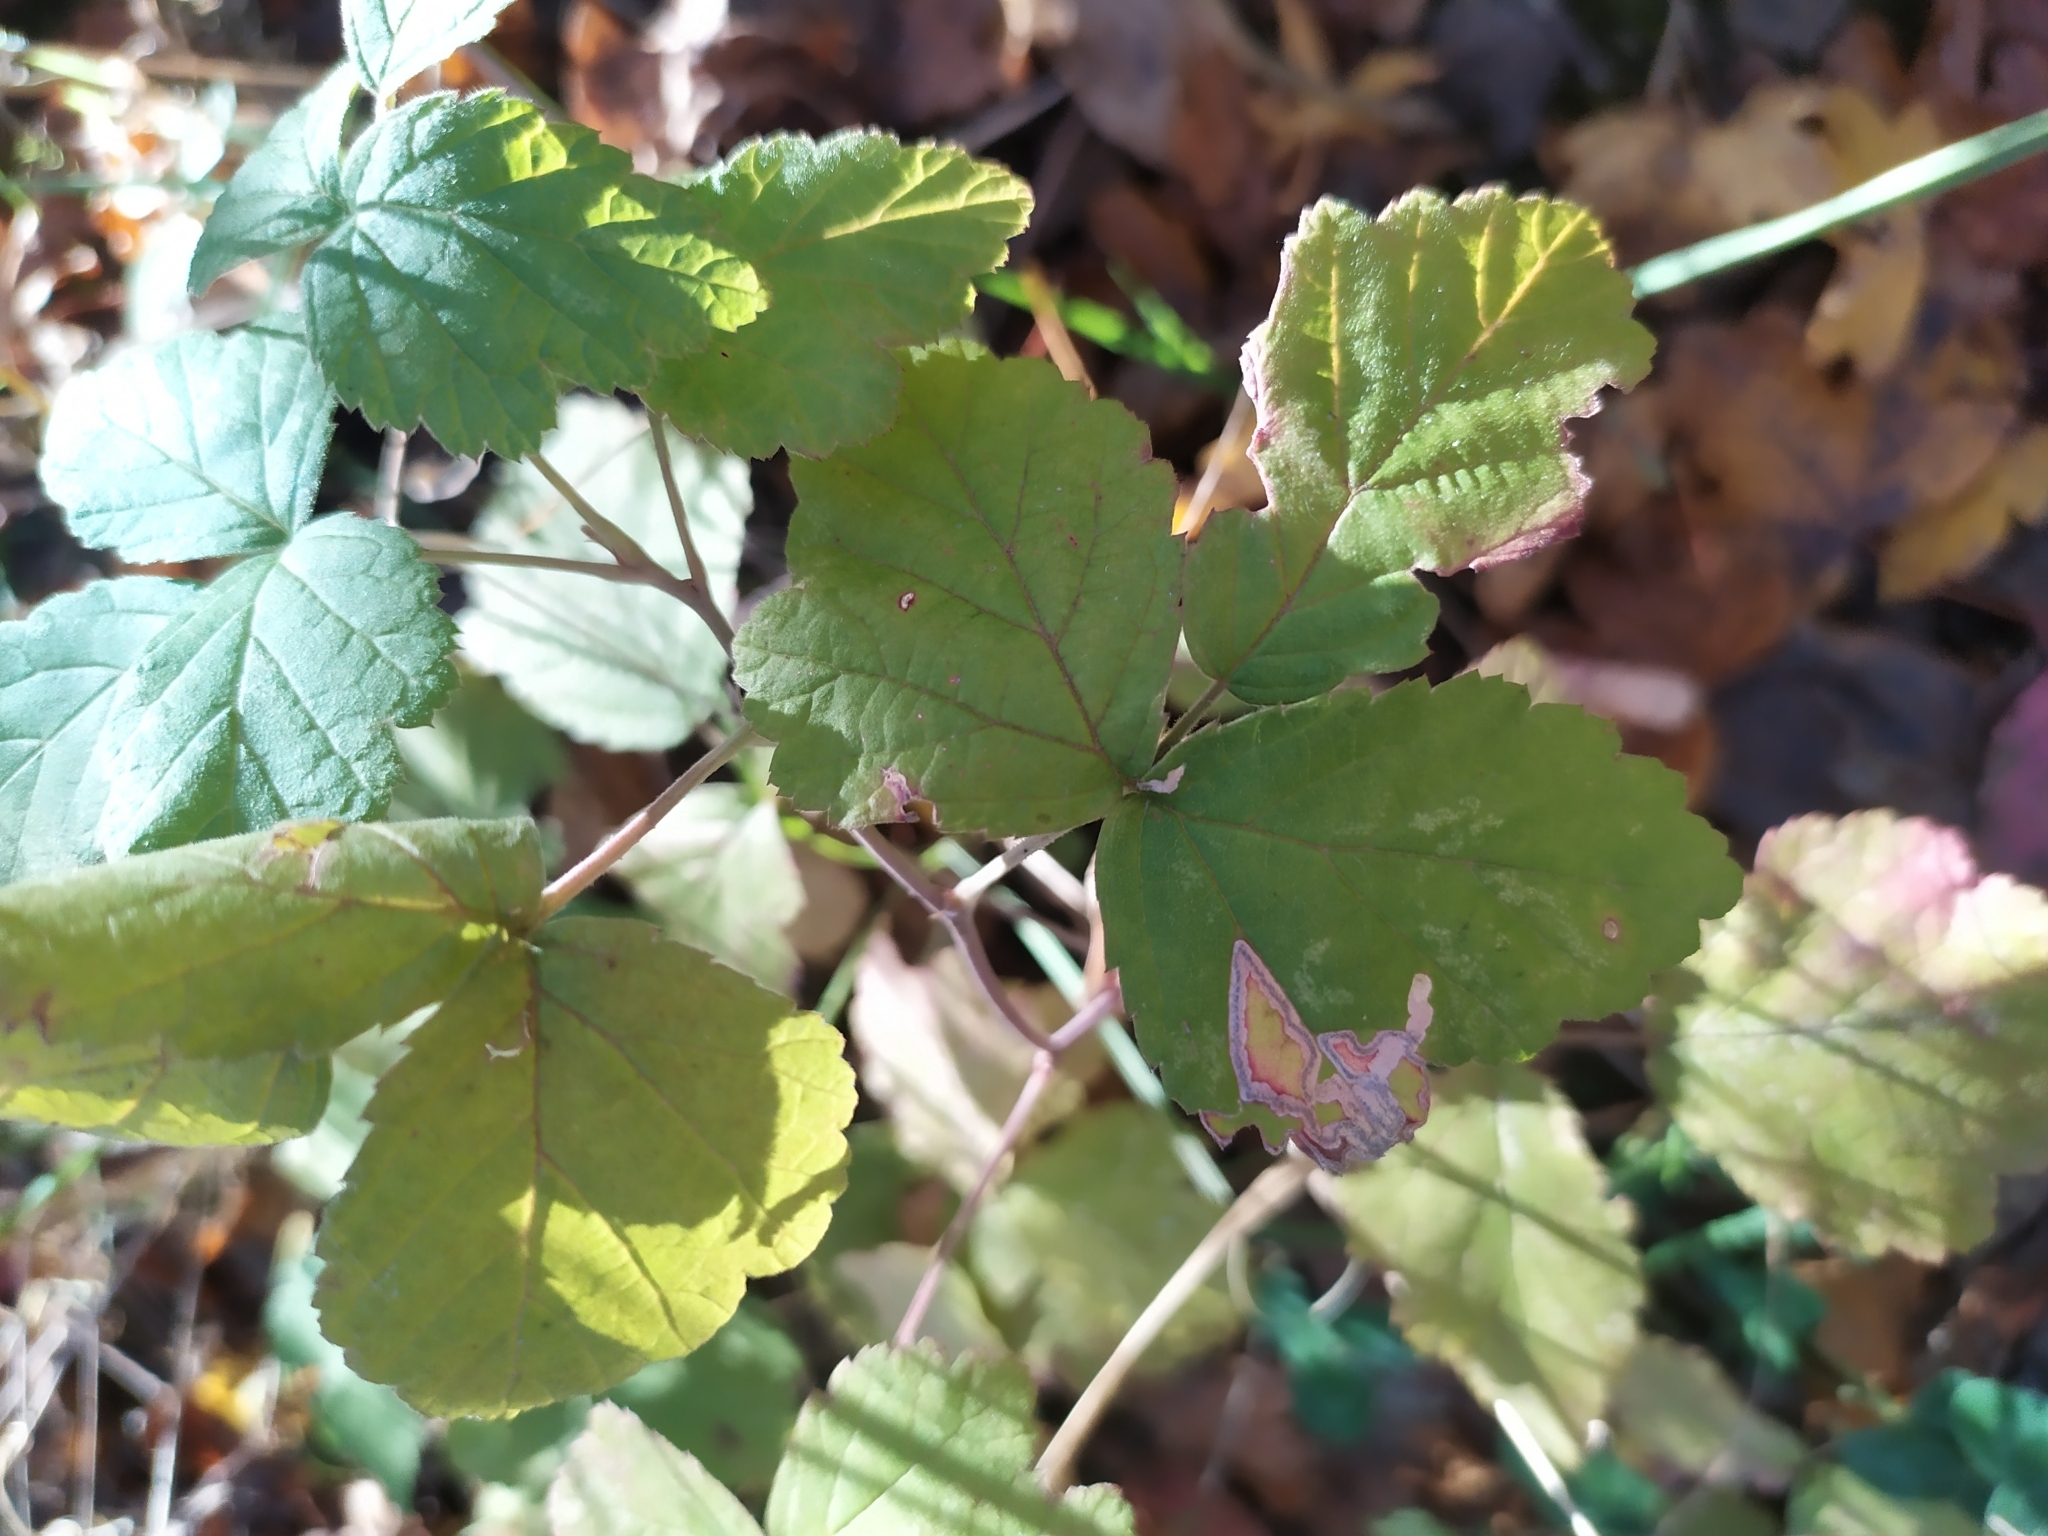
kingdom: Plantae
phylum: Tracheophyta
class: Magnoliopsida
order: Rosales
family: Rosaceae
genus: Rubus
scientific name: Rubus caesius
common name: Dewberry
